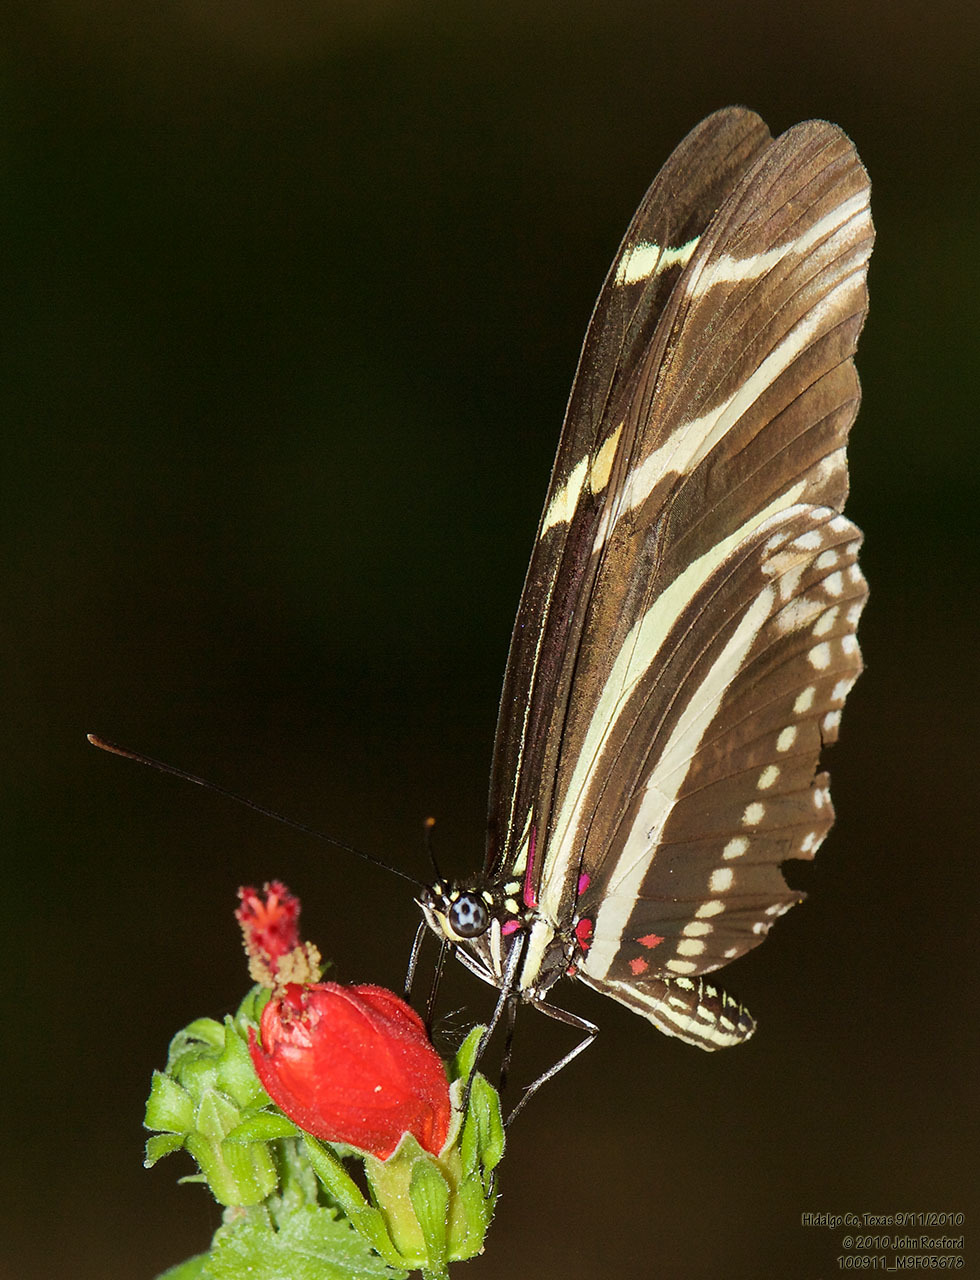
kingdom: Animalia
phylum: Arthropoda
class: Insecta
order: Lepidoptera
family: Nymphalidae
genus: Heliconius
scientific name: Heliconius charithonia
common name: Zebra long wing
